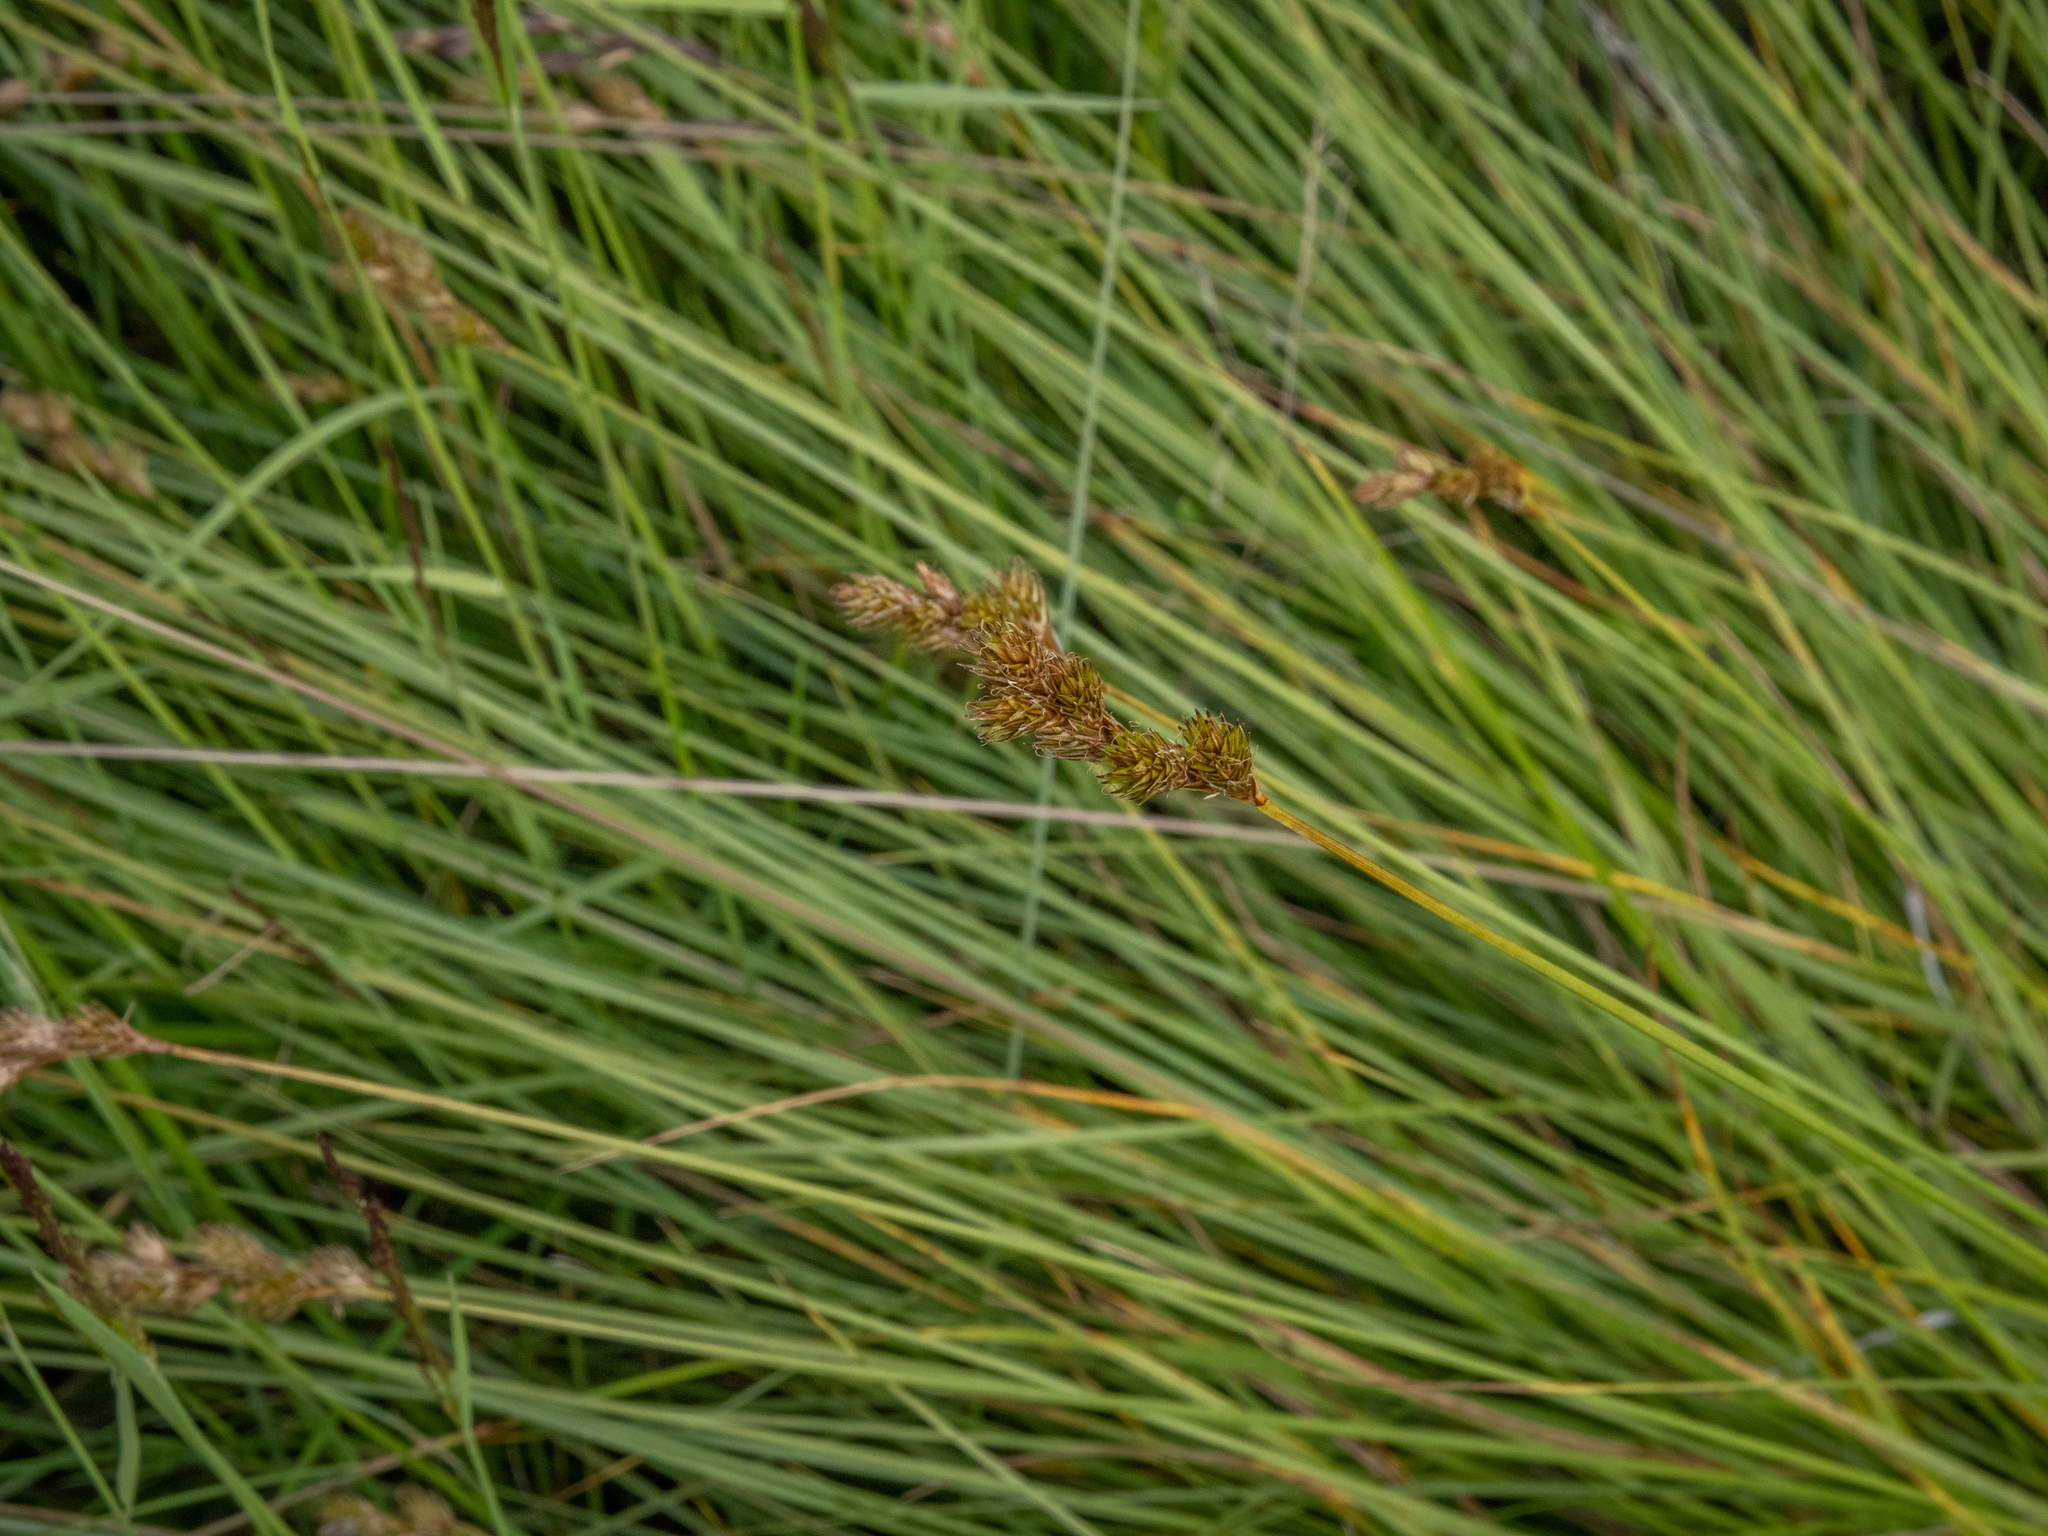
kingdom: Plantae
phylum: Tracheophyta
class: Liliopsida
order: Poales
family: Cyperaceae
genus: Carex
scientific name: Carex leporina
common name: Oval sedge
